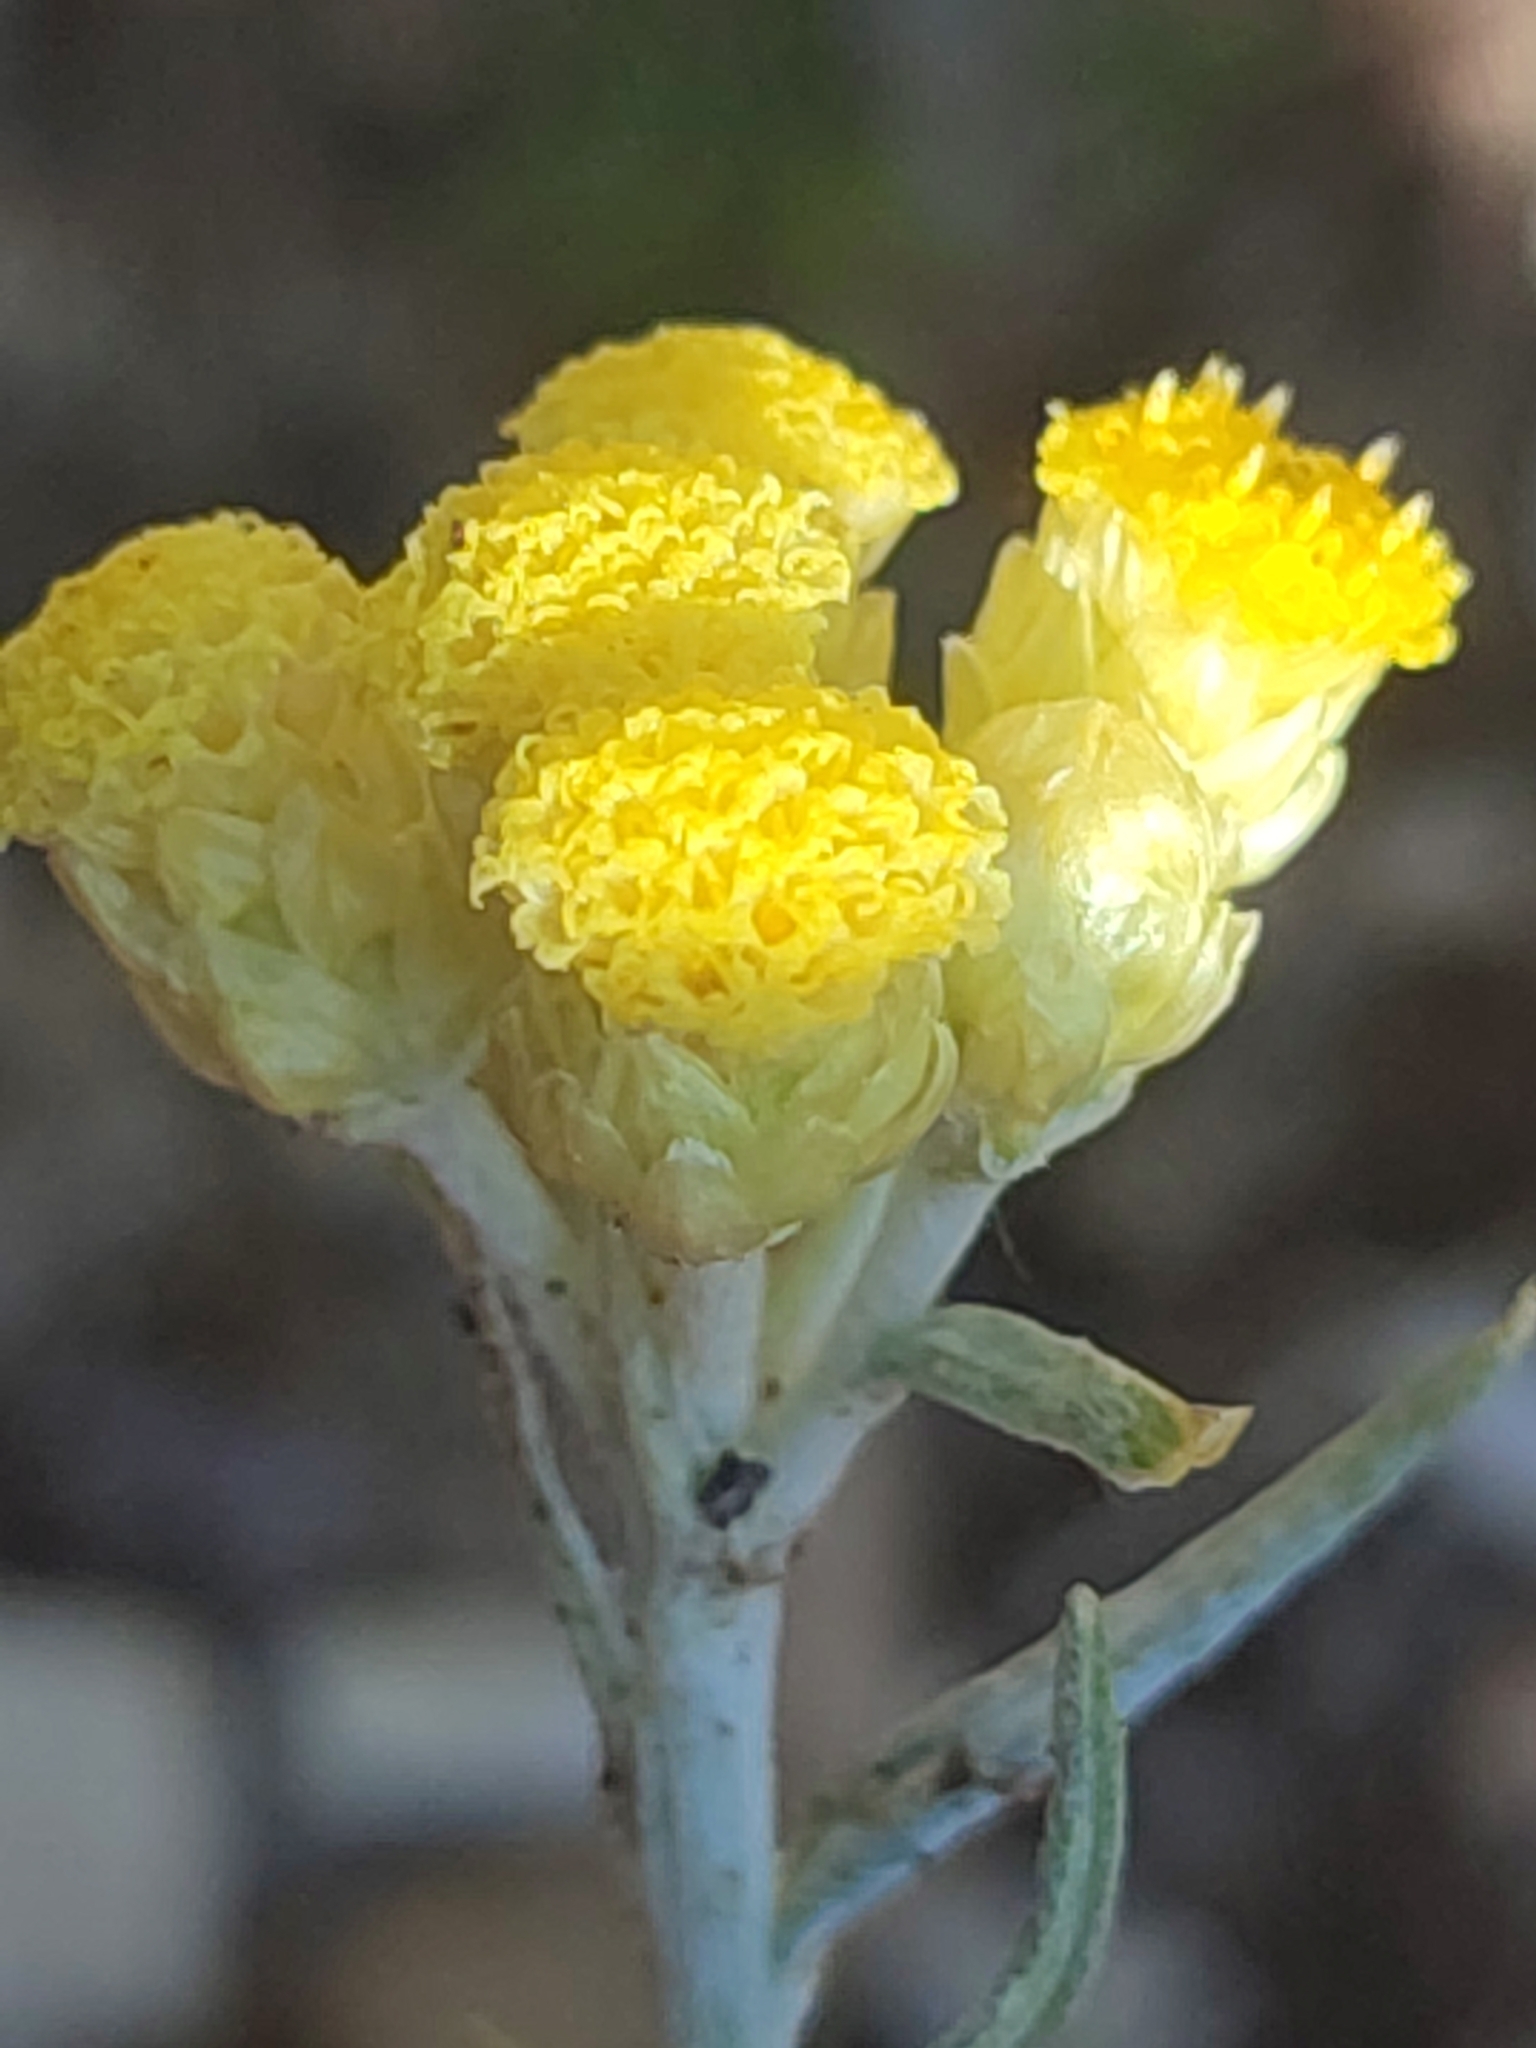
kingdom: Plantae
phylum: Tracheophyta
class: Magnoliopsida
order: Asterales
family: Asteraceae
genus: Helichrysum
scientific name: Helichrysum stoechas
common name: Goldilocks
